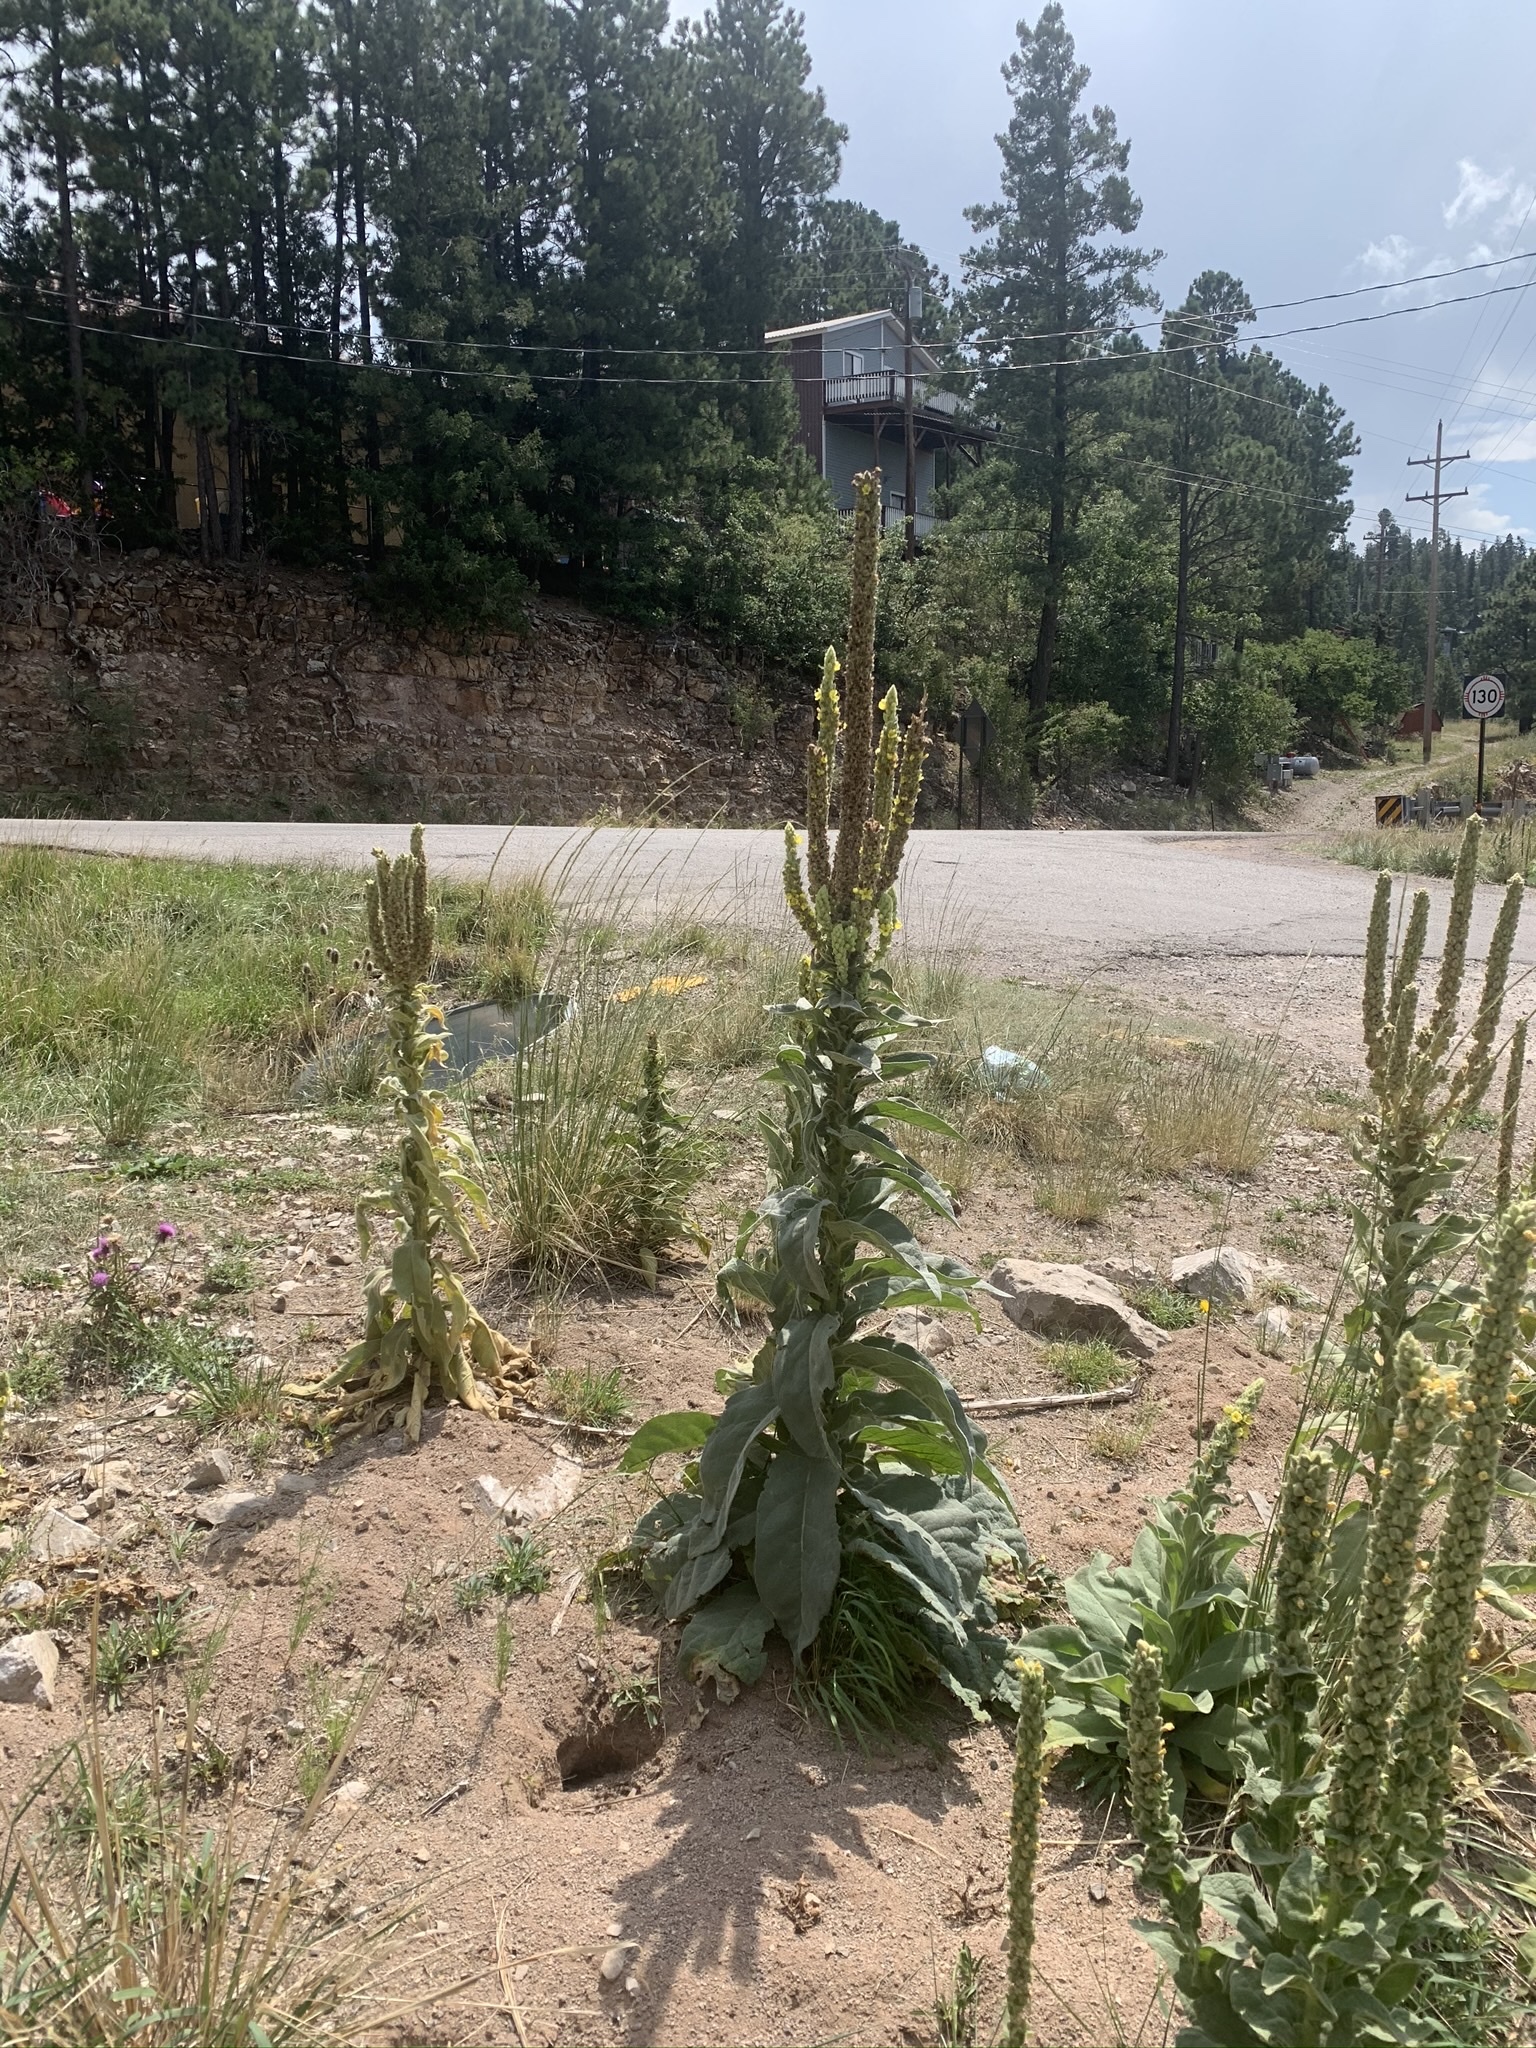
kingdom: Plantae
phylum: Tracheophyta
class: Magnoliopsida
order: Lamiales
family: Scrophulariaceae
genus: Verbascum
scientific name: Verbascum thapsus
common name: Common mullein
